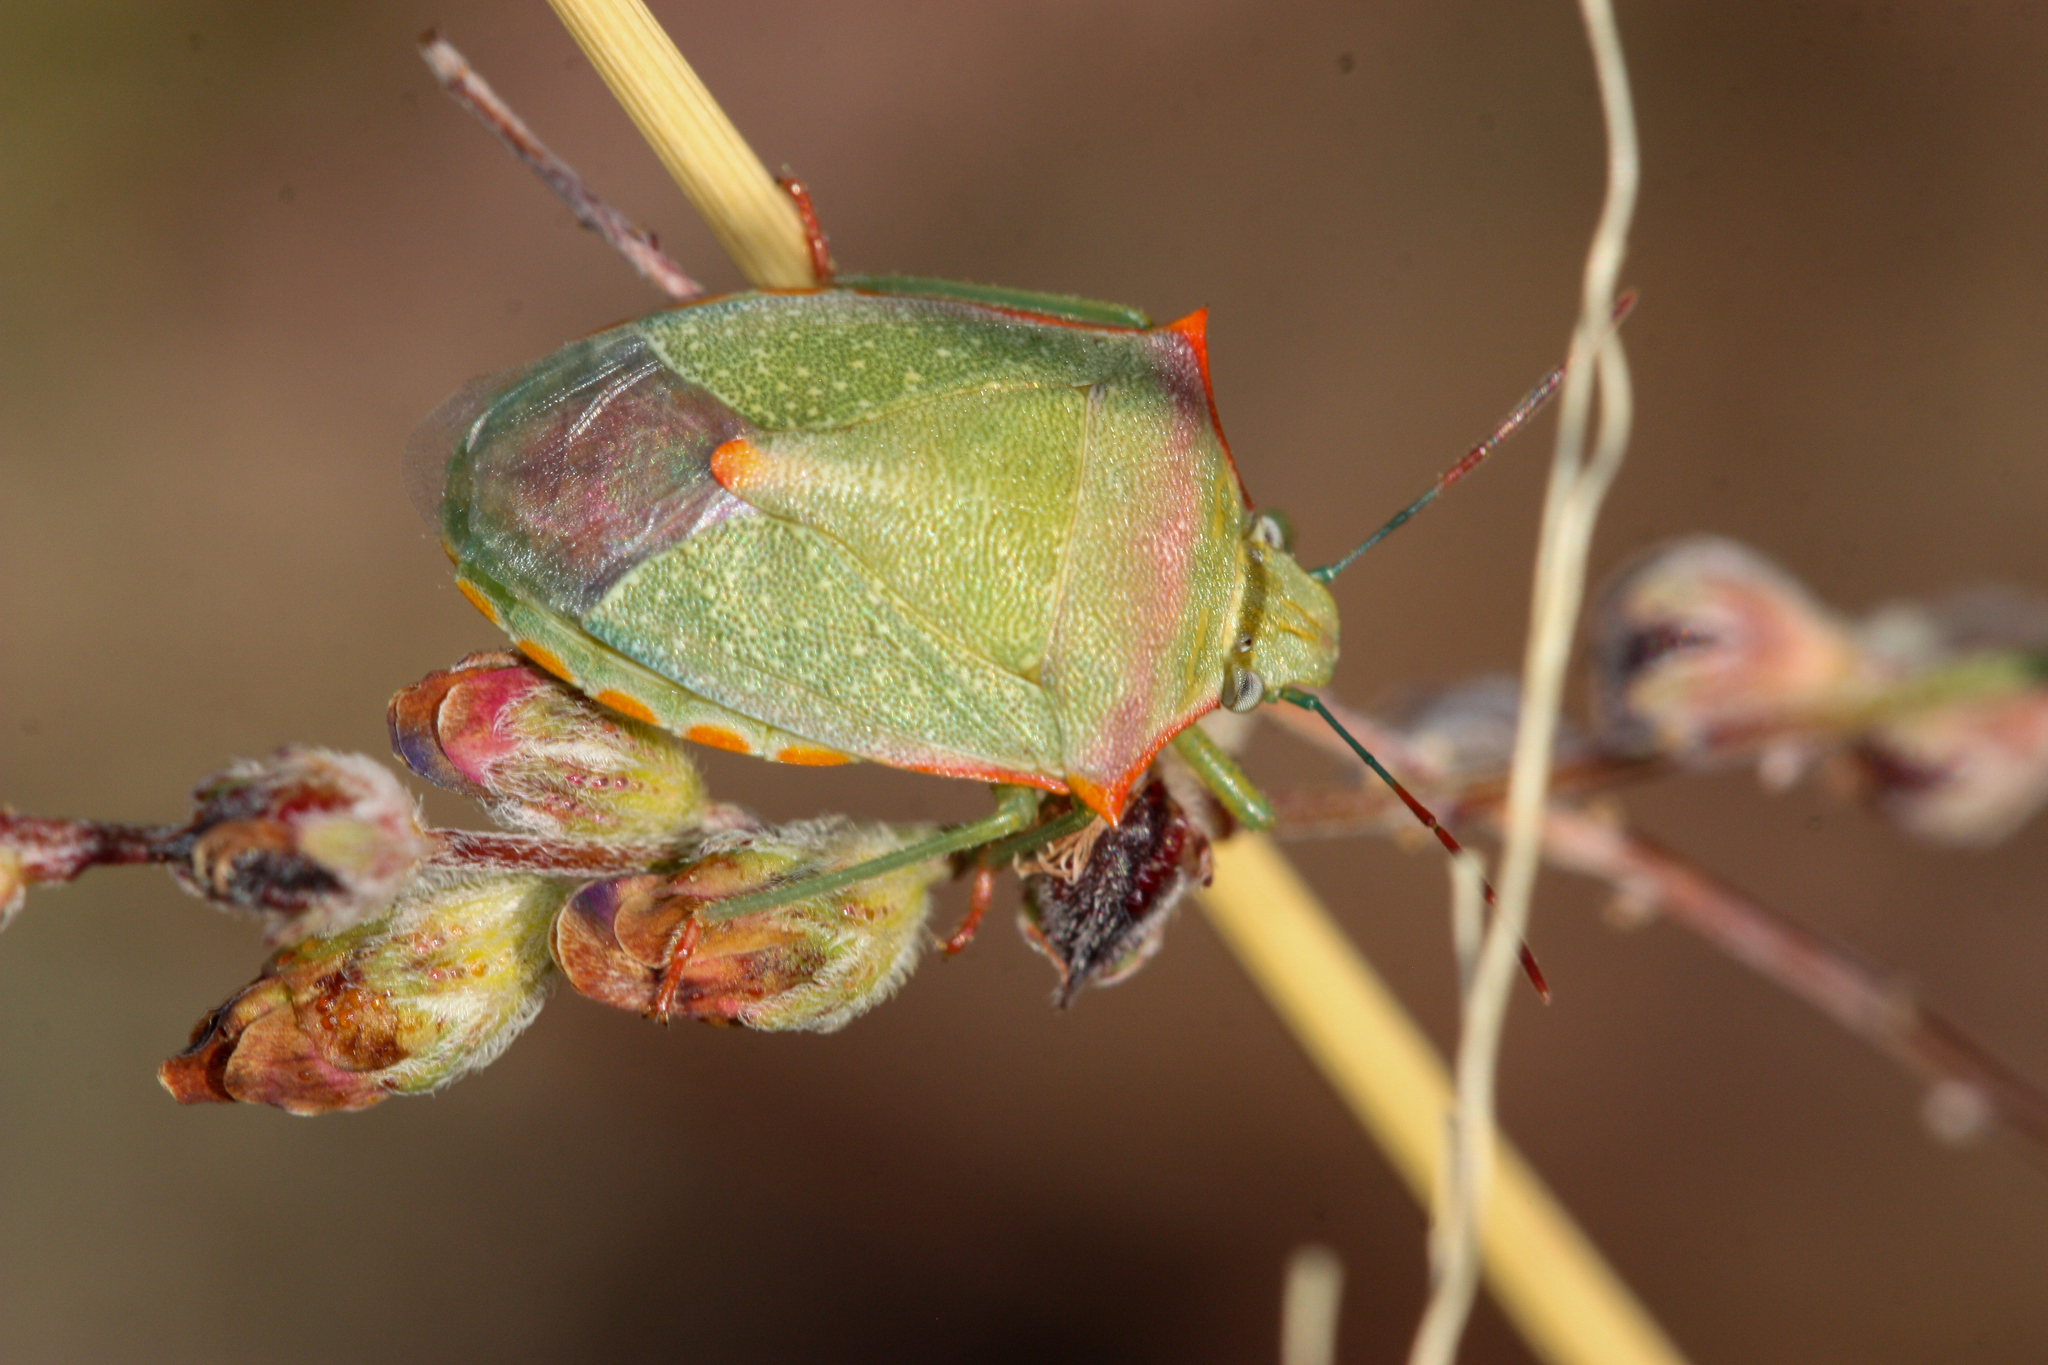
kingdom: Animalia
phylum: Arthropoda
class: Insecta
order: Hemiptera
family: Pentatomidae
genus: Thyanta
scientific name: Thyanta accerra
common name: Stink bug
